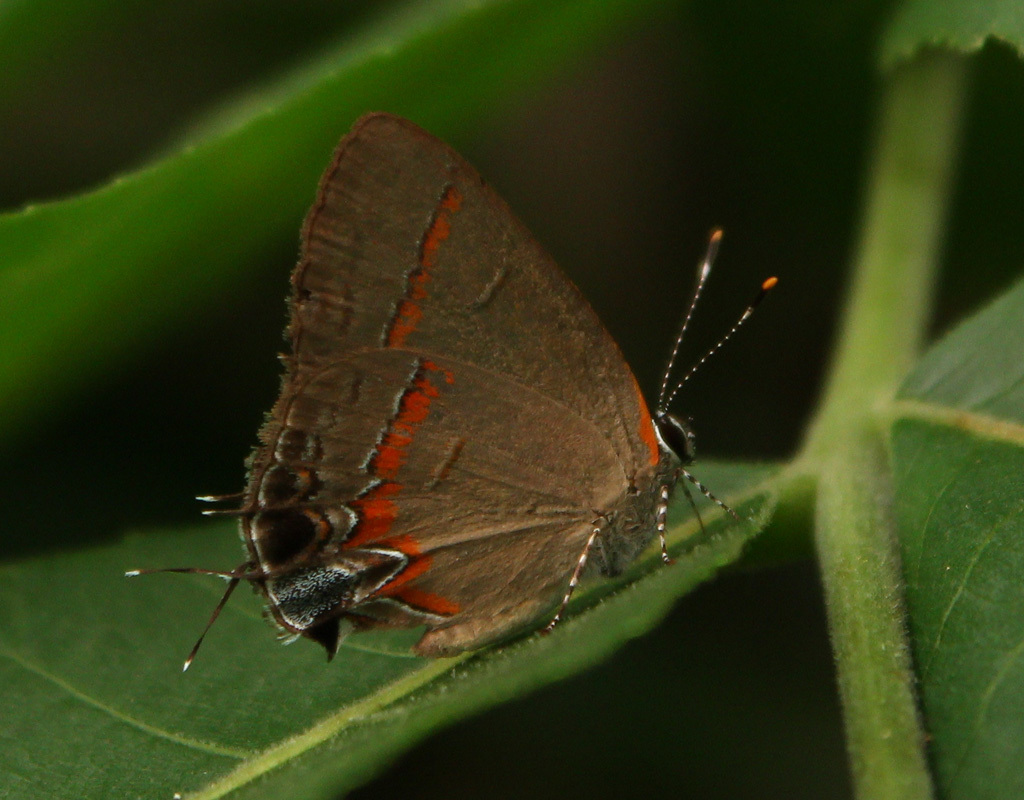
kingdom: Animalia
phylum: Arthropoda
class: Insecta
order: Lepidoptera
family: Lycaenidae
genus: Calycopis
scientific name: Calycopis cecrops
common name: Red-banded hairstreak
